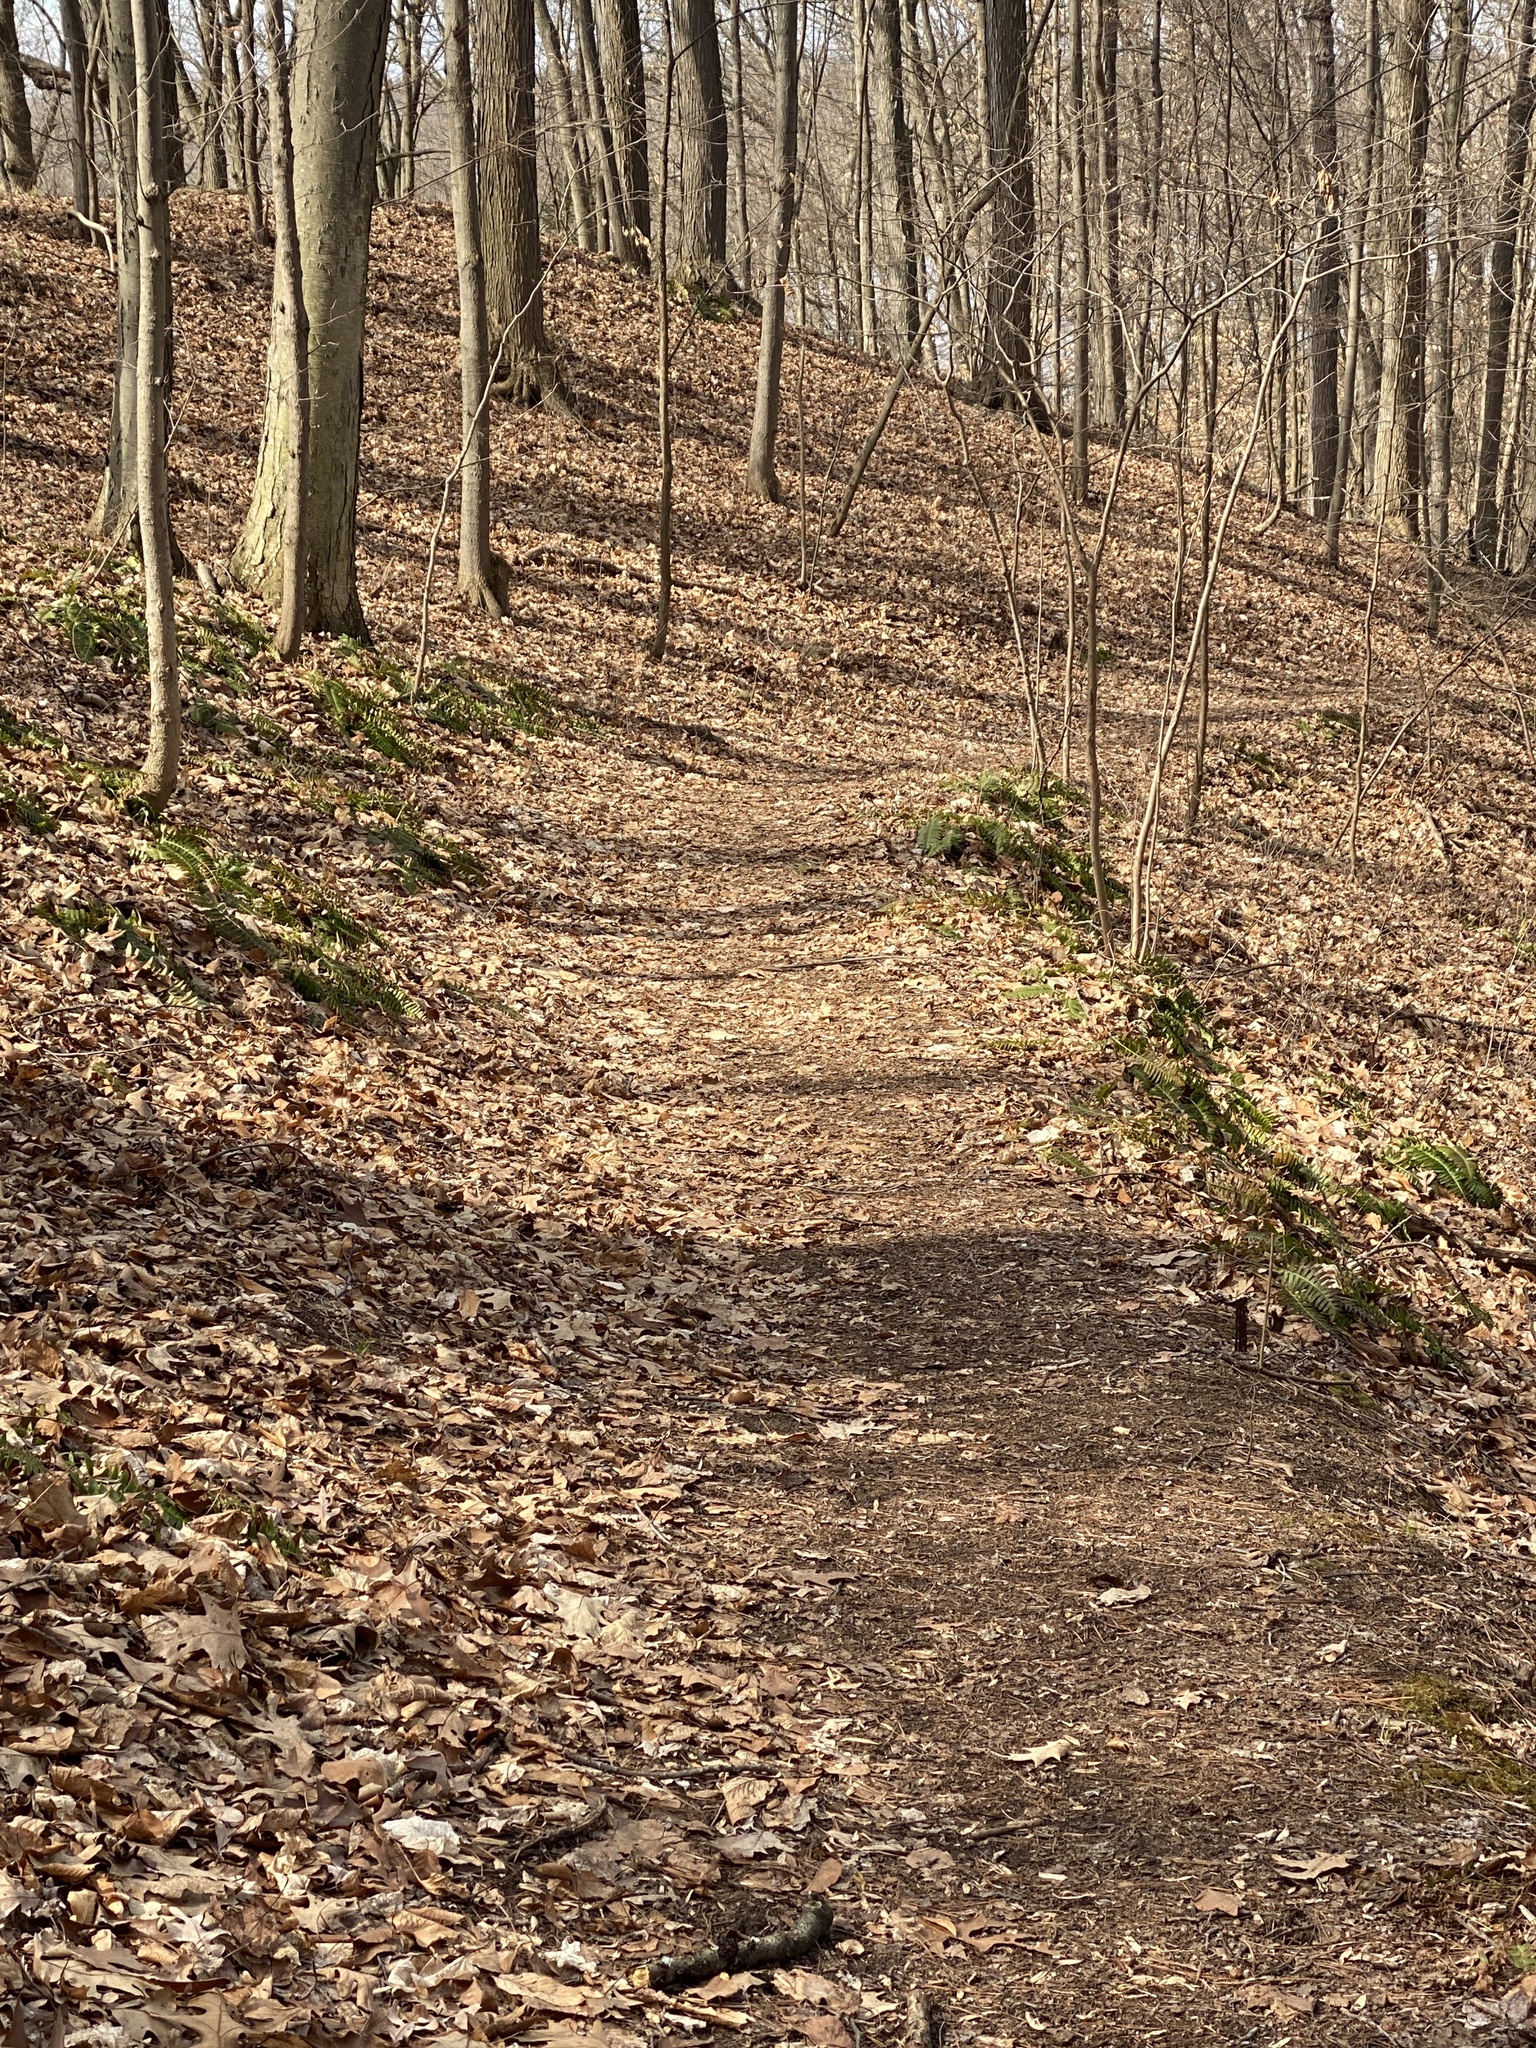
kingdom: Plantae
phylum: Tracheophyta
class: Polypodiopsida
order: Polypodiales
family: Dryopteridaceae
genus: Polystichum
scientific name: Polystichum acrostichoides
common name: Christmas fern
